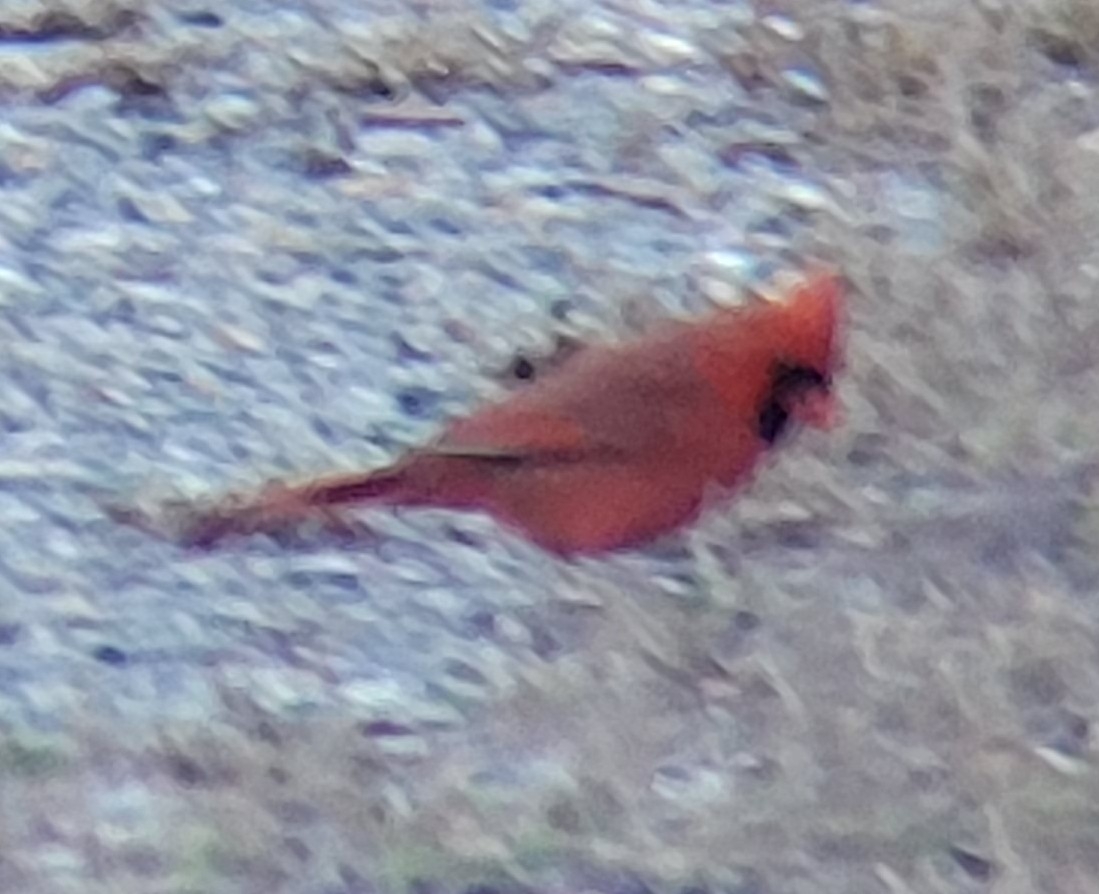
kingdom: Animalia
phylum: Chordata
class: Aves
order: Passeriformes
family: Cardinalidae
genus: Cardinalis
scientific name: Cardinalis cardinalis
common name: Northern cardinal
